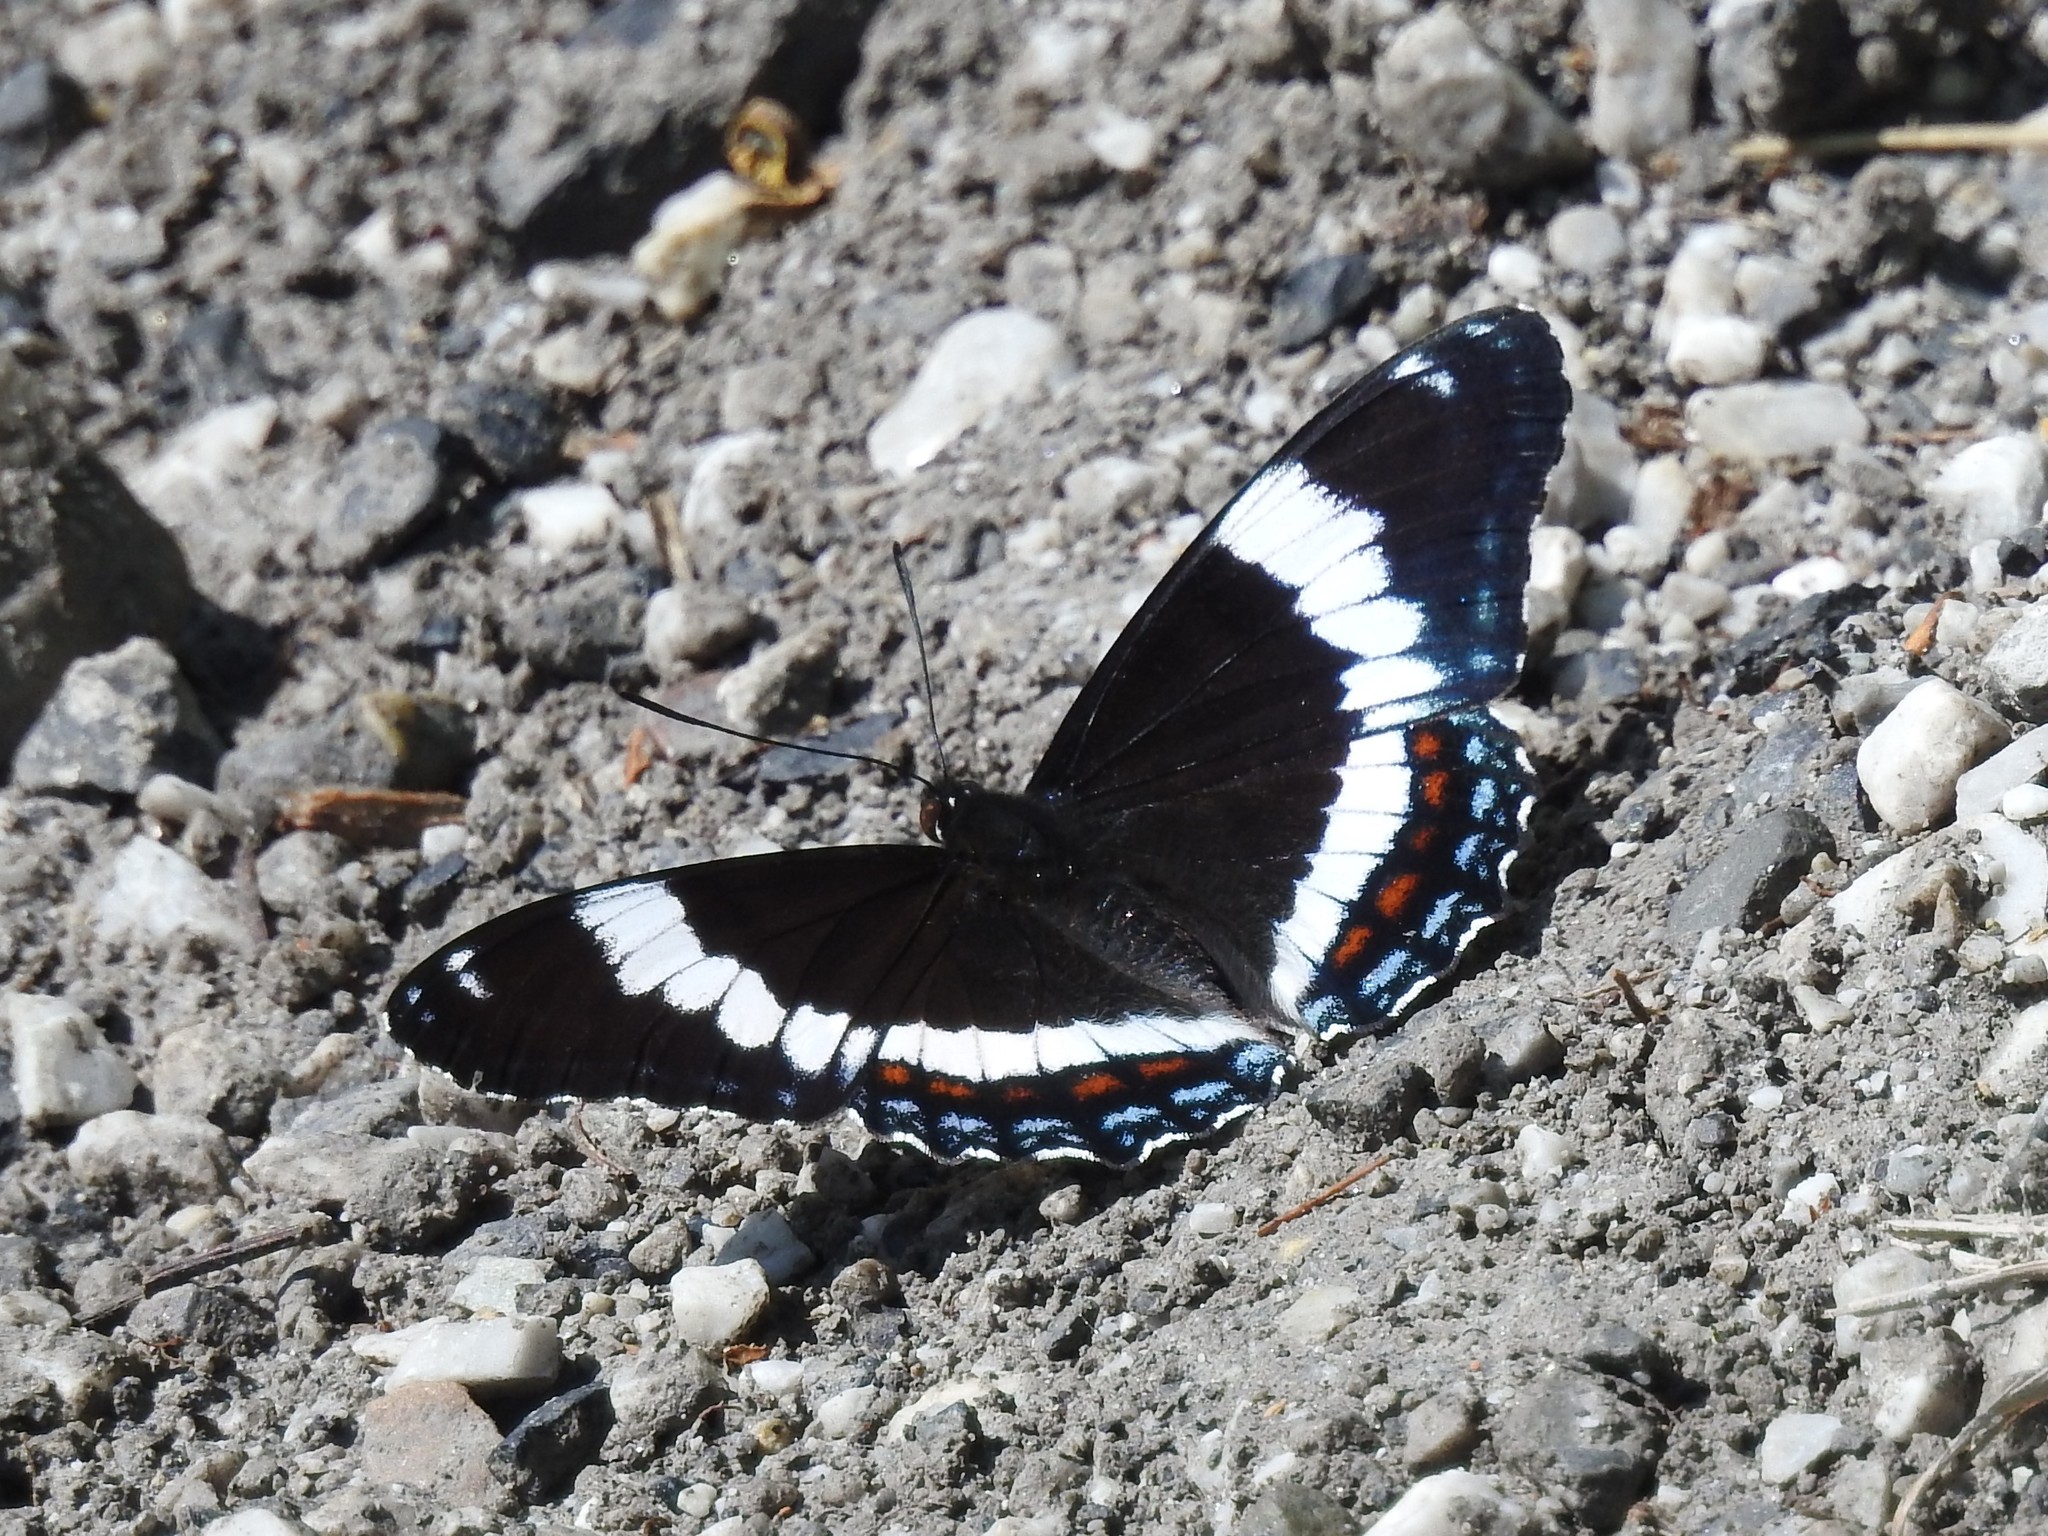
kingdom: Animalia
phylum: Arthropoda
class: Insecta
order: Lepidoptera
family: Nymphalidae
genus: Limenitis
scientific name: Limenitis arthemis
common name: Red-spotted admiral
